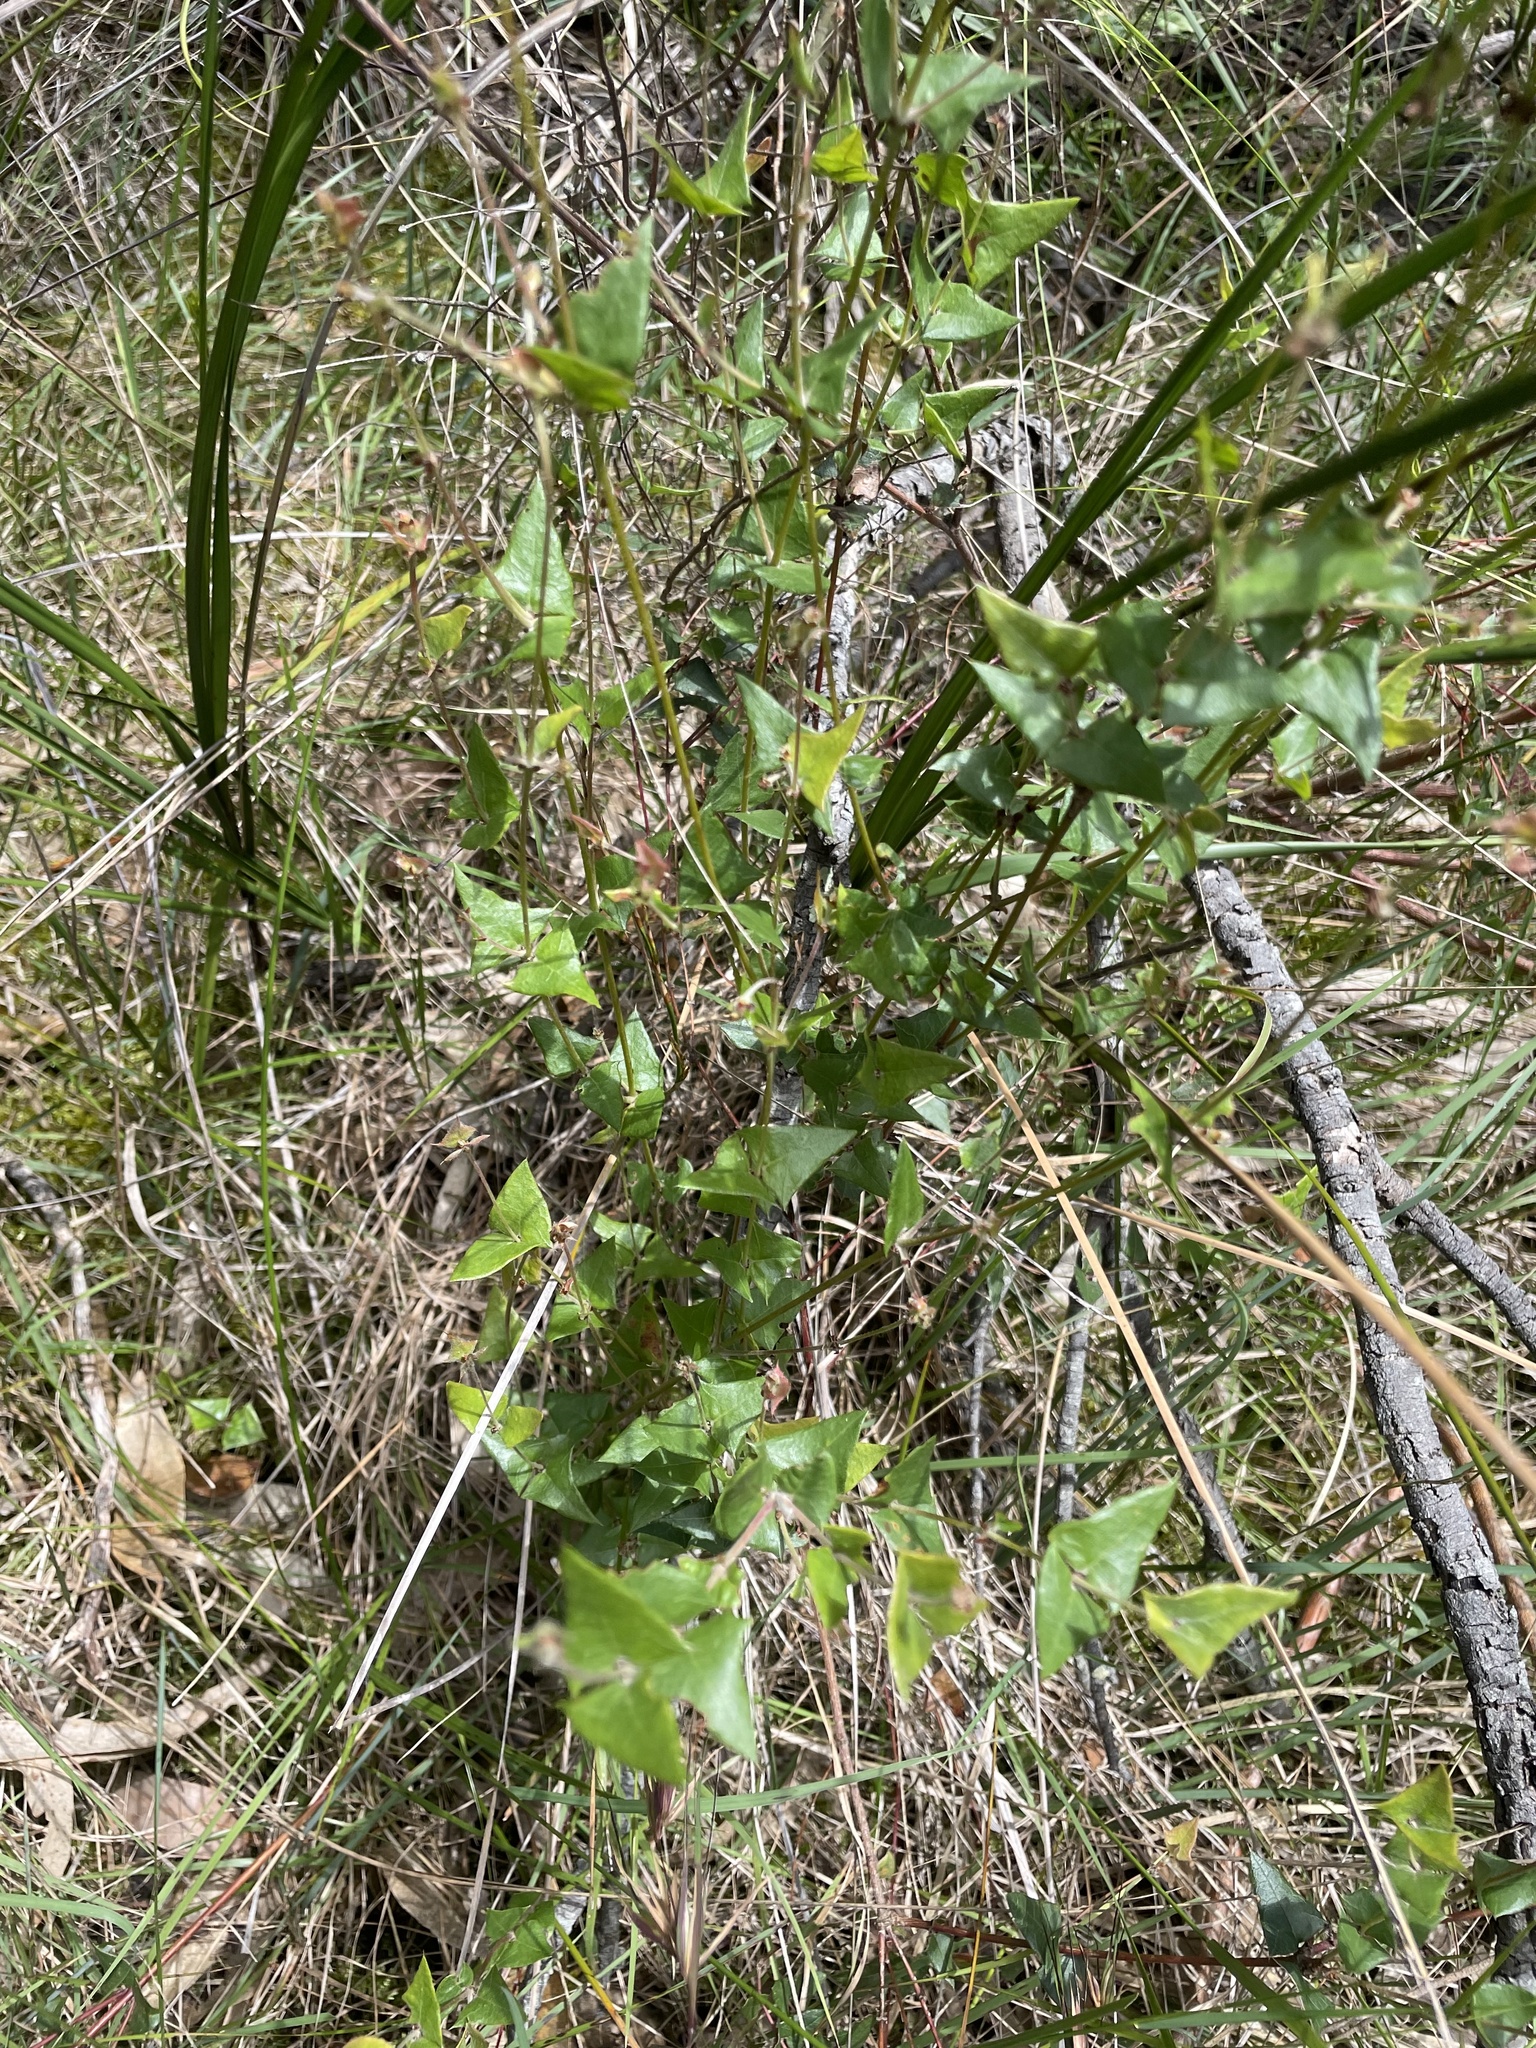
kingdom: Plantae
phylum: Tracheophyta
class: Magnoliopsida
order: Fabales
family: Fabaceae
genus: Platylobium
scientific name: Platylobium obtusangulum
